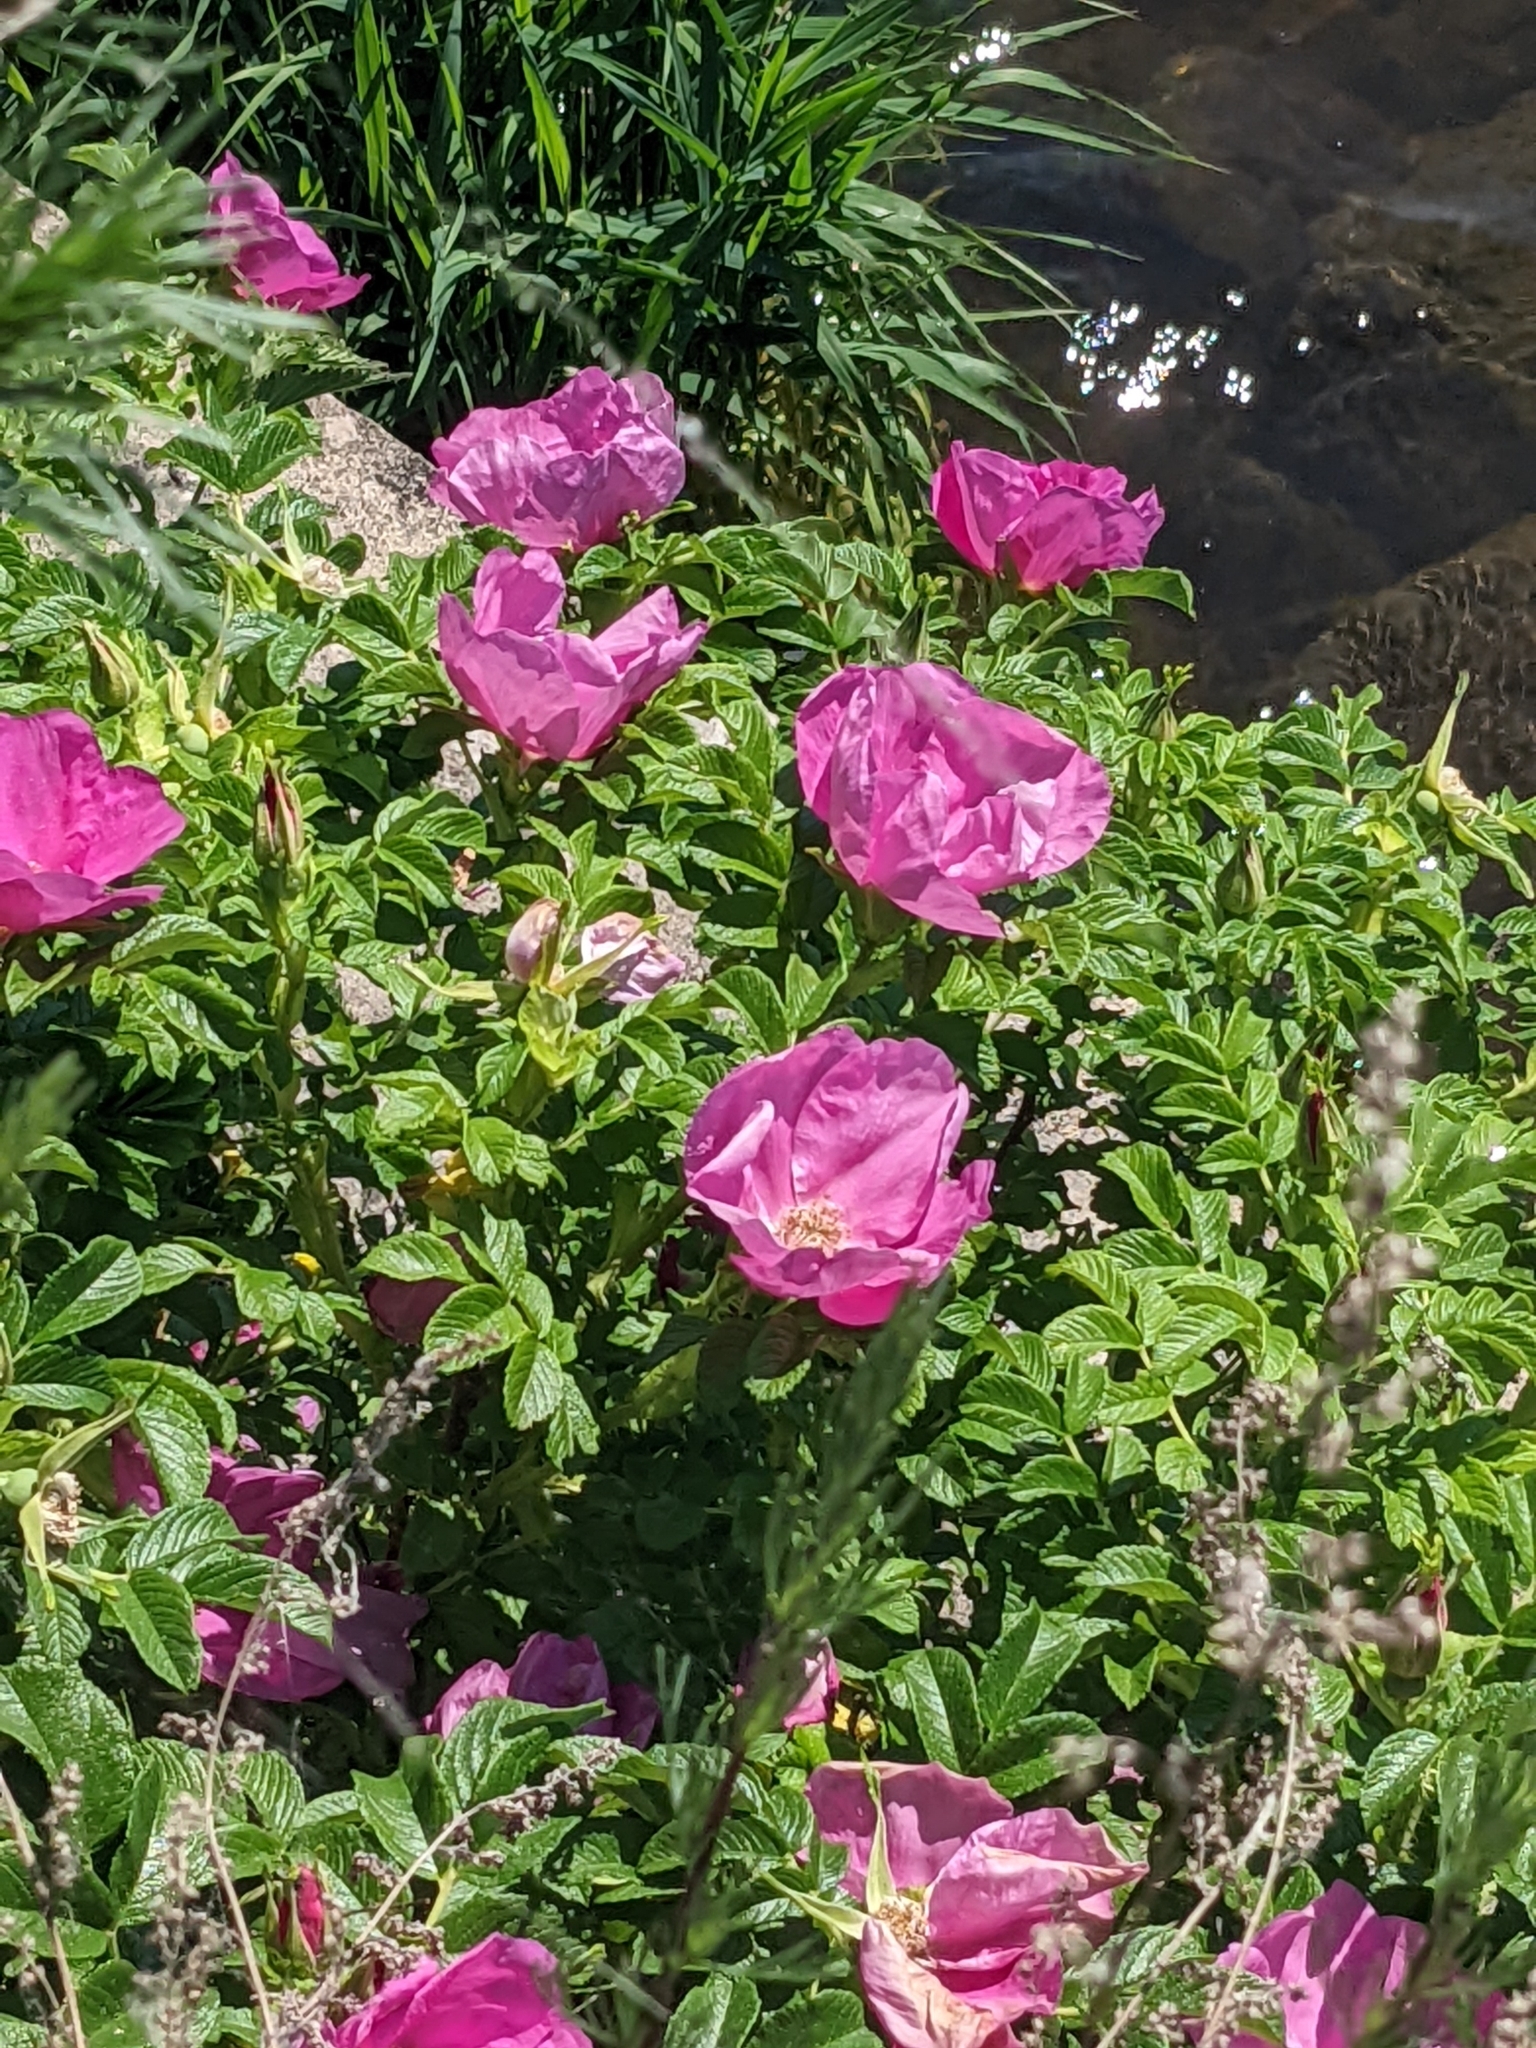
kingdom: Plantae
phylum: Tracheophyta
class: Magnoliopsida
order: Rosales
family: Rosaceae
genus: Rosa
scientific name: Rosa rugosa
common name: Japanese rose
